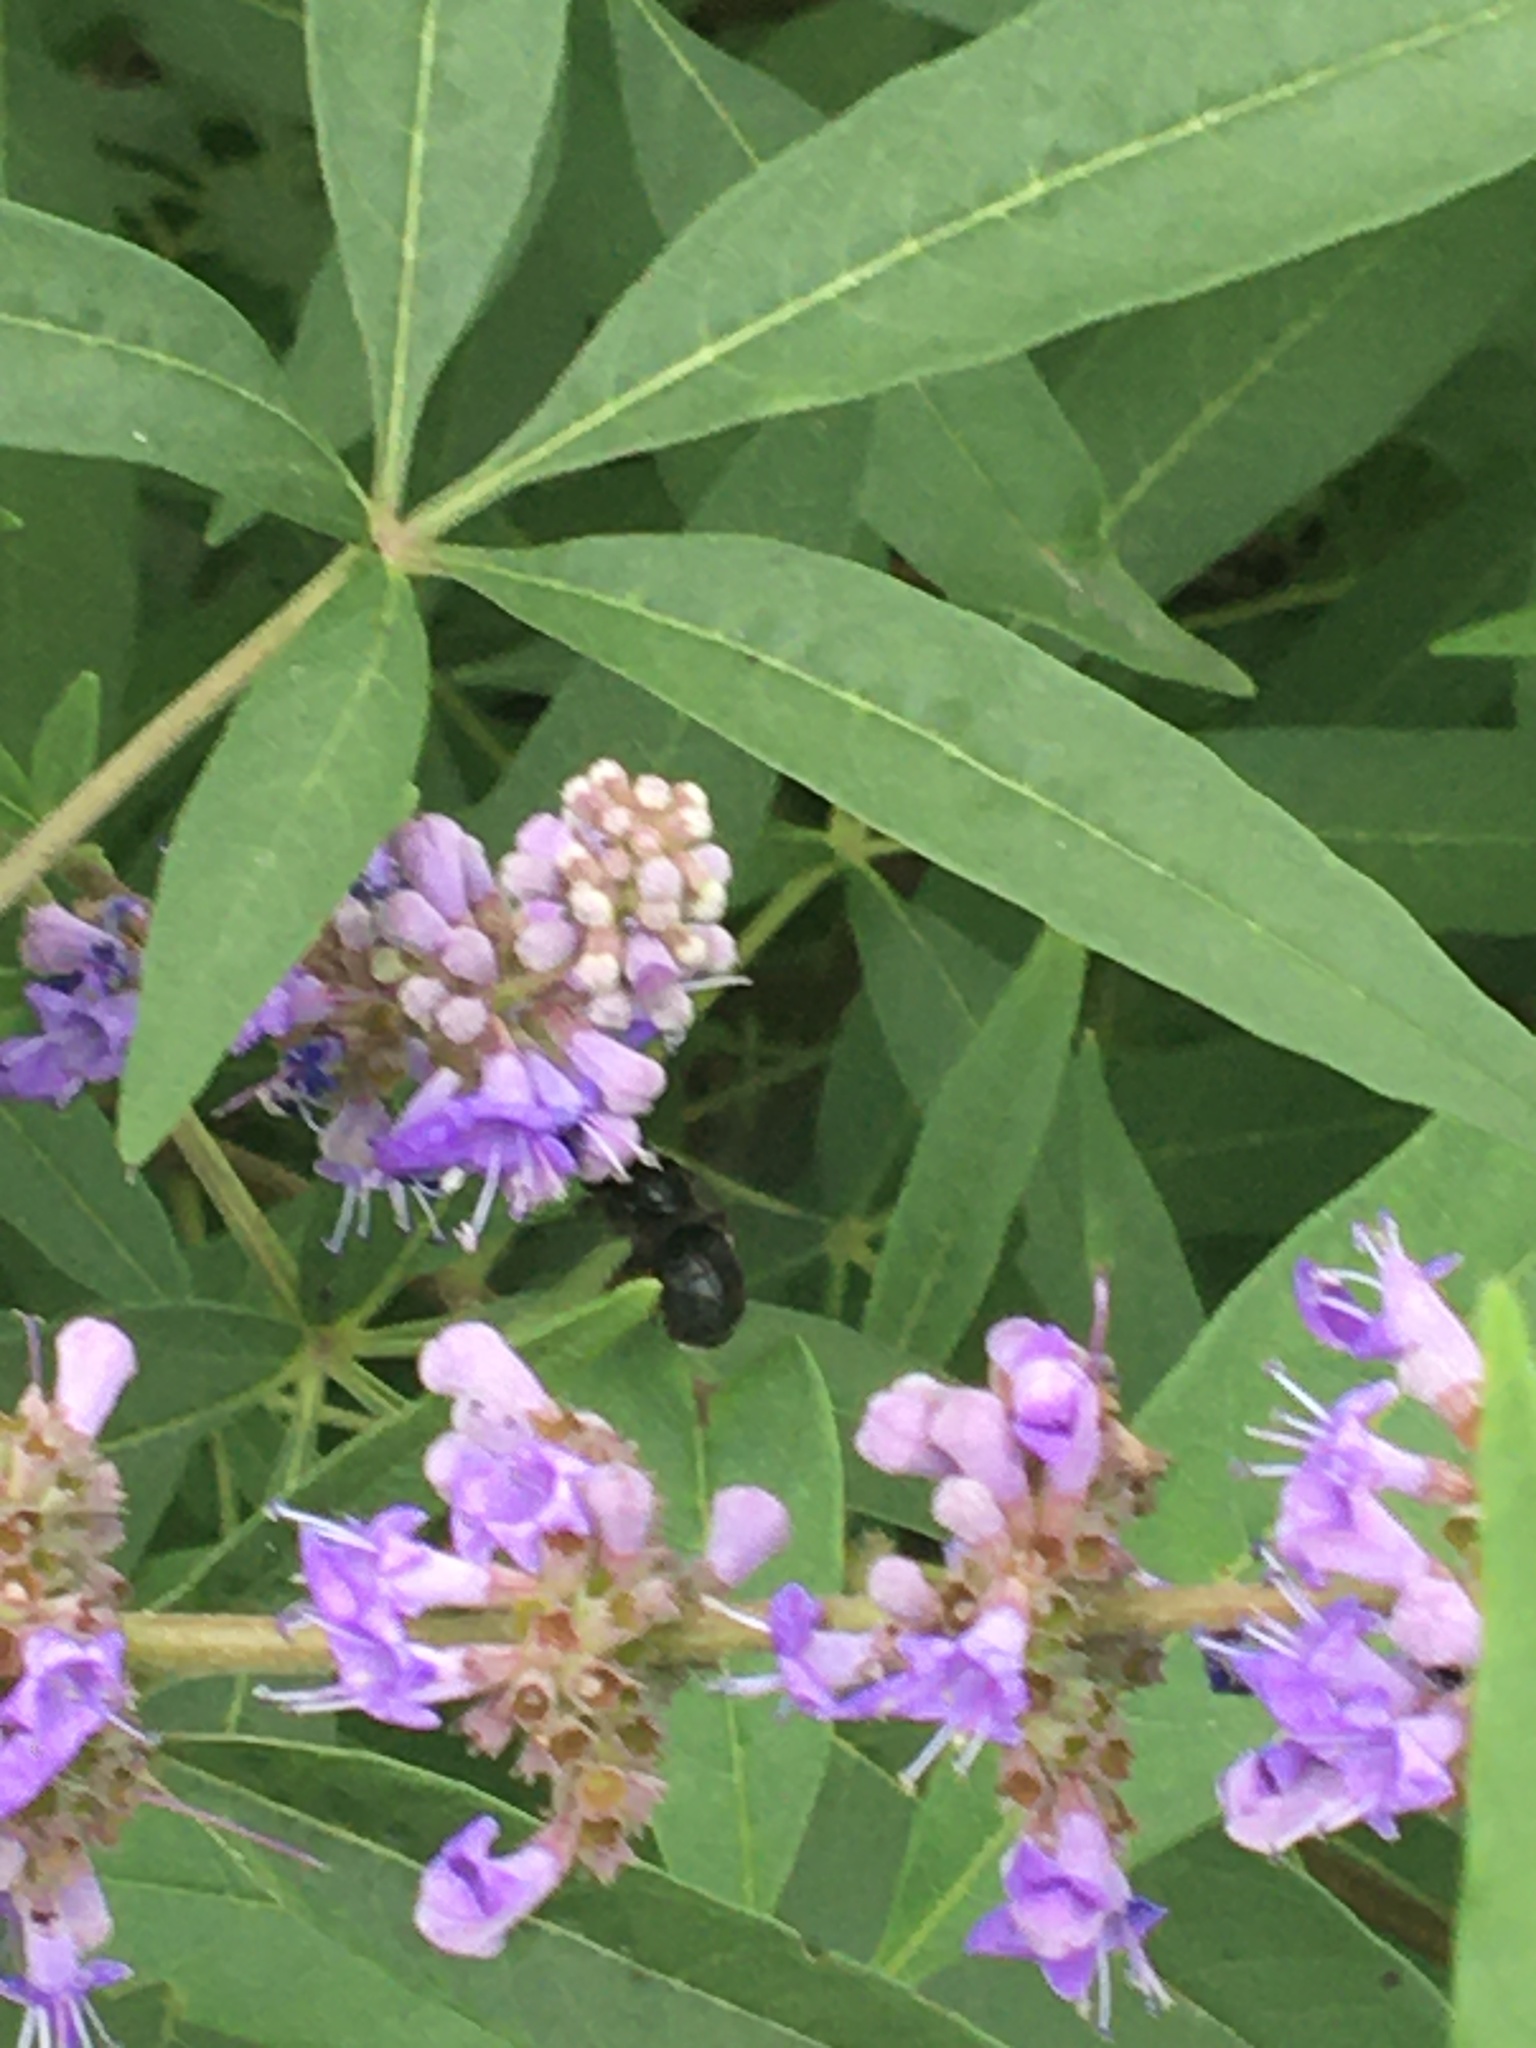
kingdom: Animalia
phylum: Arthropoda
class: Insecta
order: Hymenoptera
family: Apidae
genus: Melissodes
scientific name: Melissodes bimaculatus
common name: Two-spotted long-horned bee
